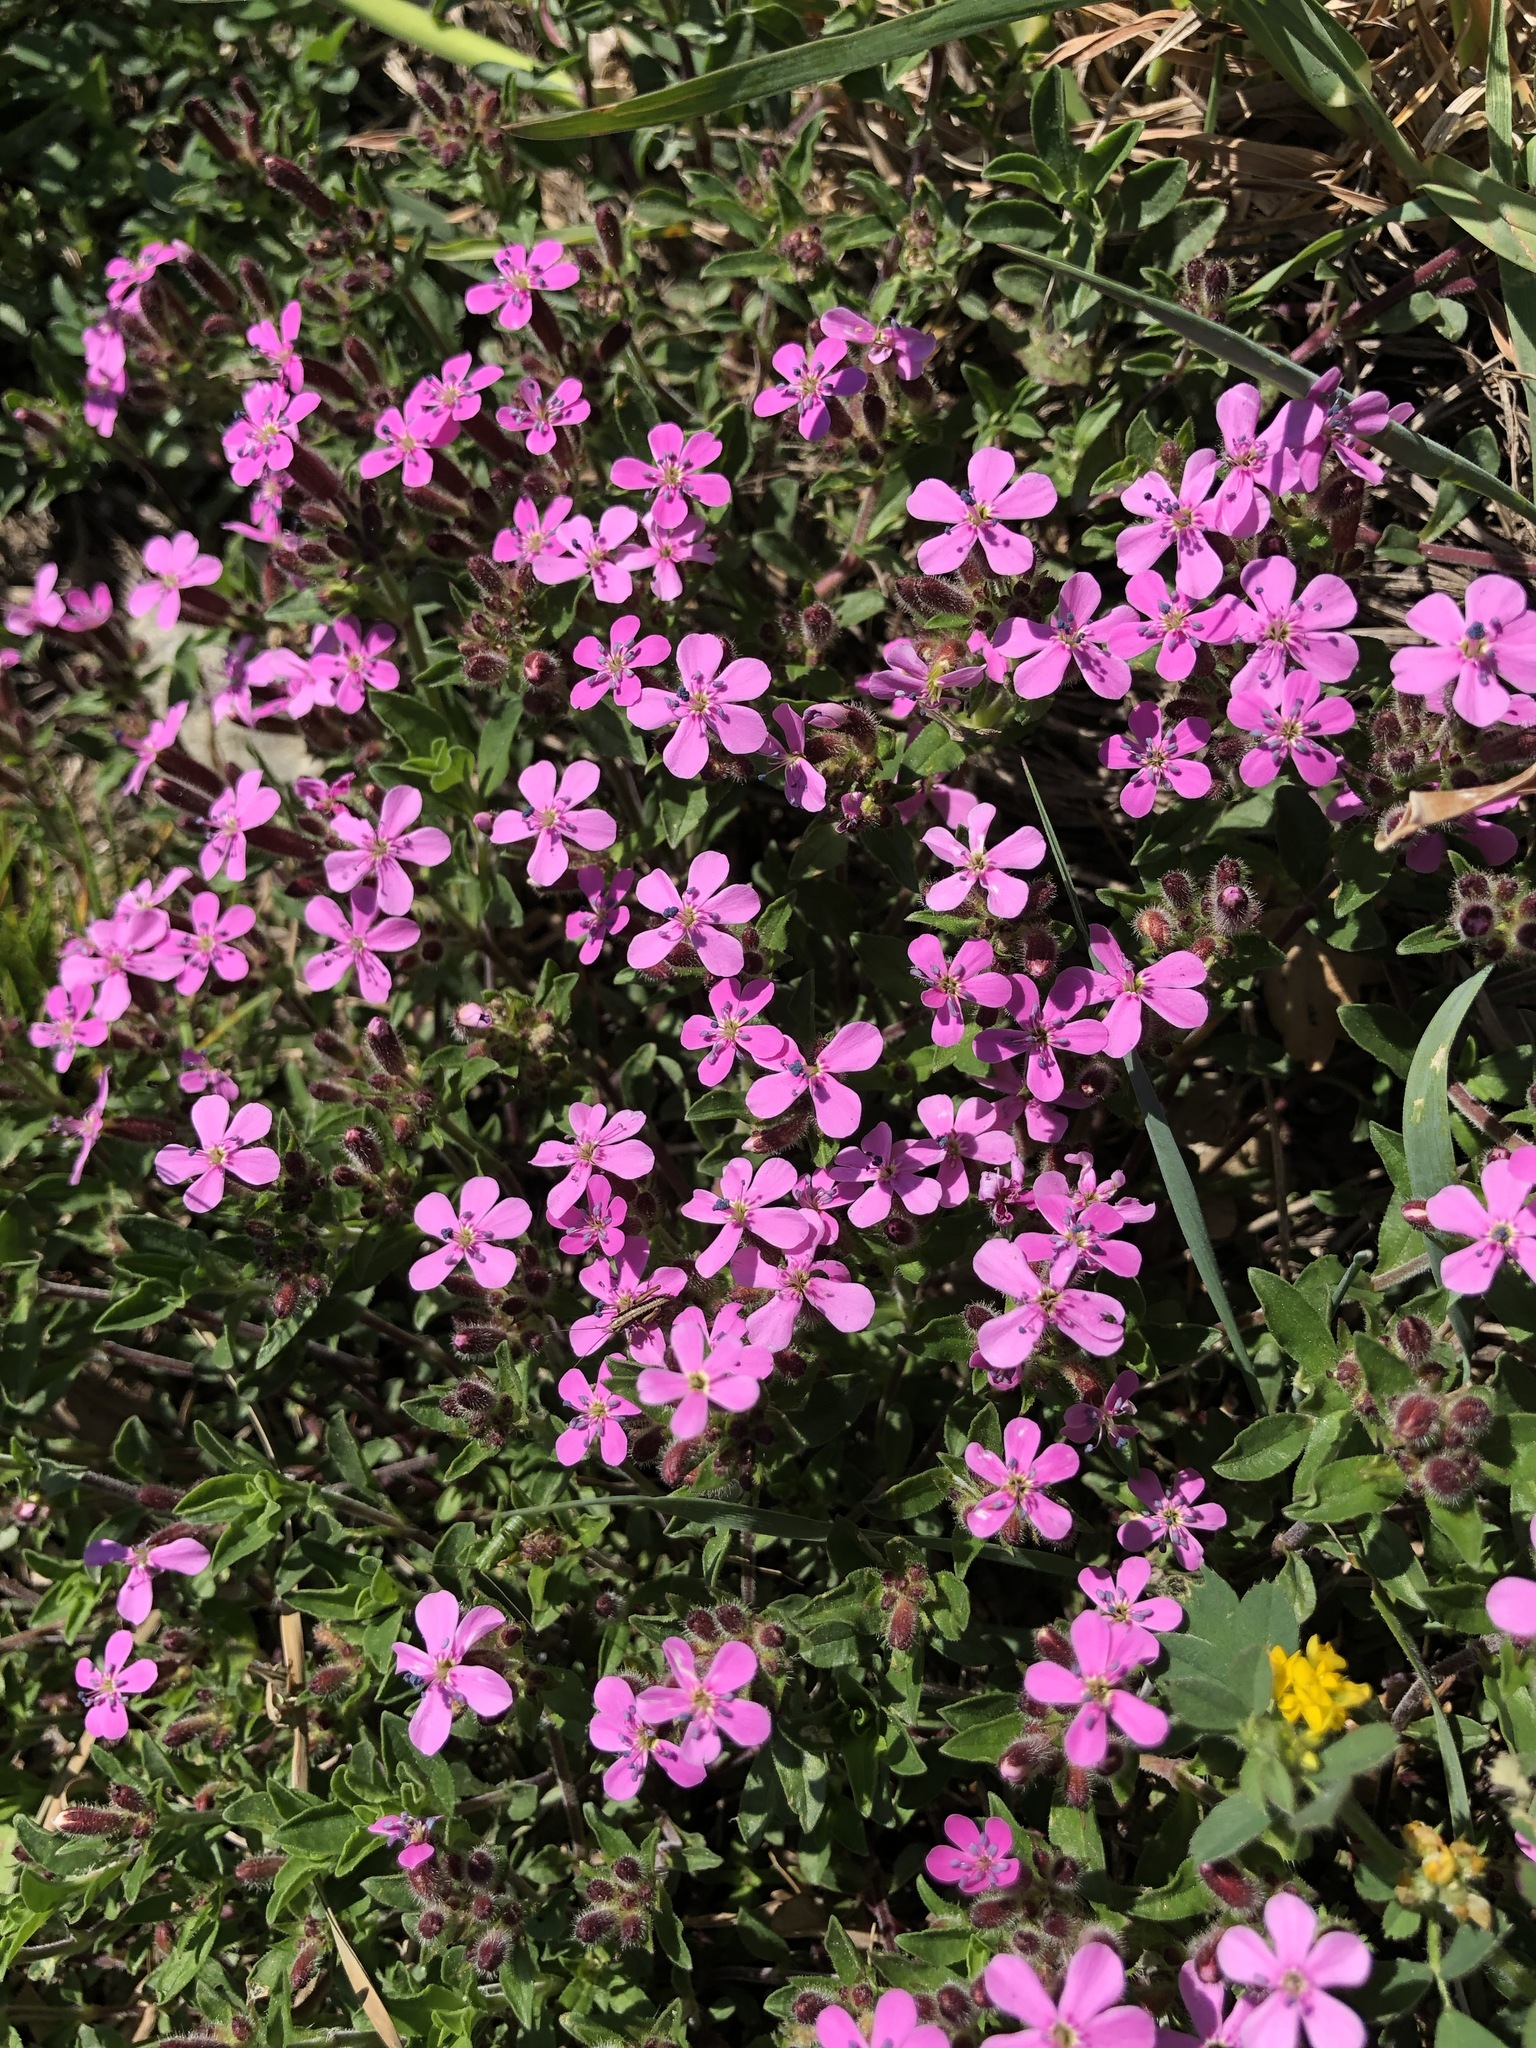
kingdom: Plantae
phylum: Tracheophyta
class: Magnoliopsida
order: Caryophyllales
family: Caryophyllaceae
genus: Saponaria
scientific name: Saponaria ocymoides
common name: Rock soapwort
